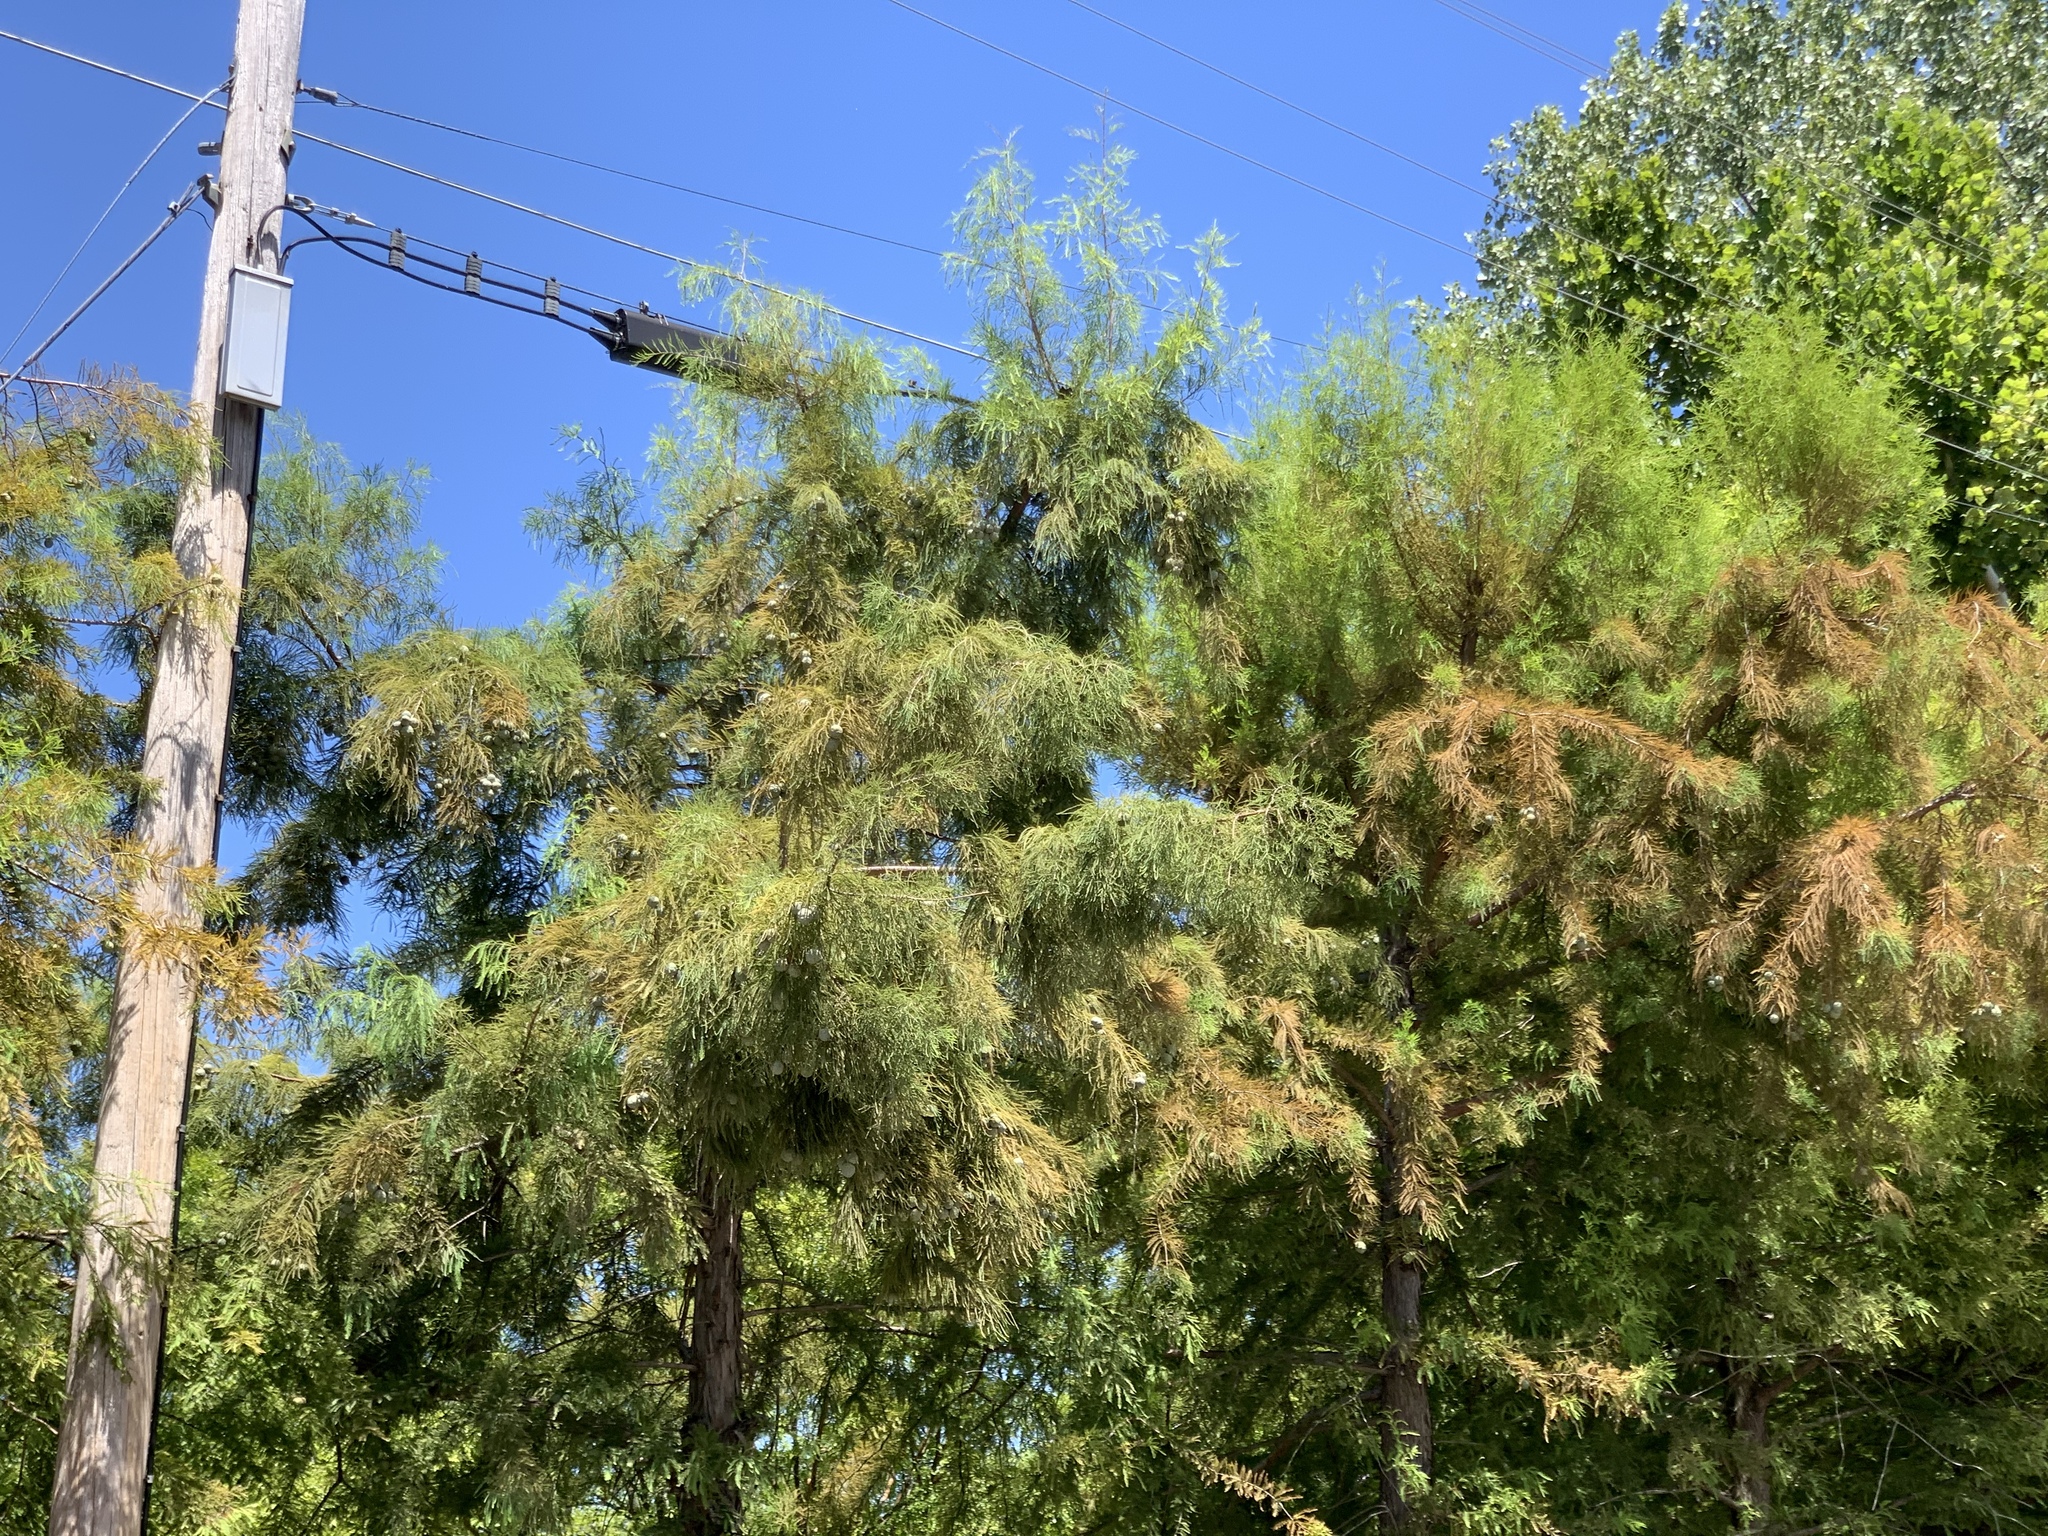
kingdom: Plantae
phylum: Tracheophyta
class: Pinopsida
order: Pinales
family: Cupressaceae
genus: Taxodium
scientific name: Taxodium distichum
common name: Bald cypress
